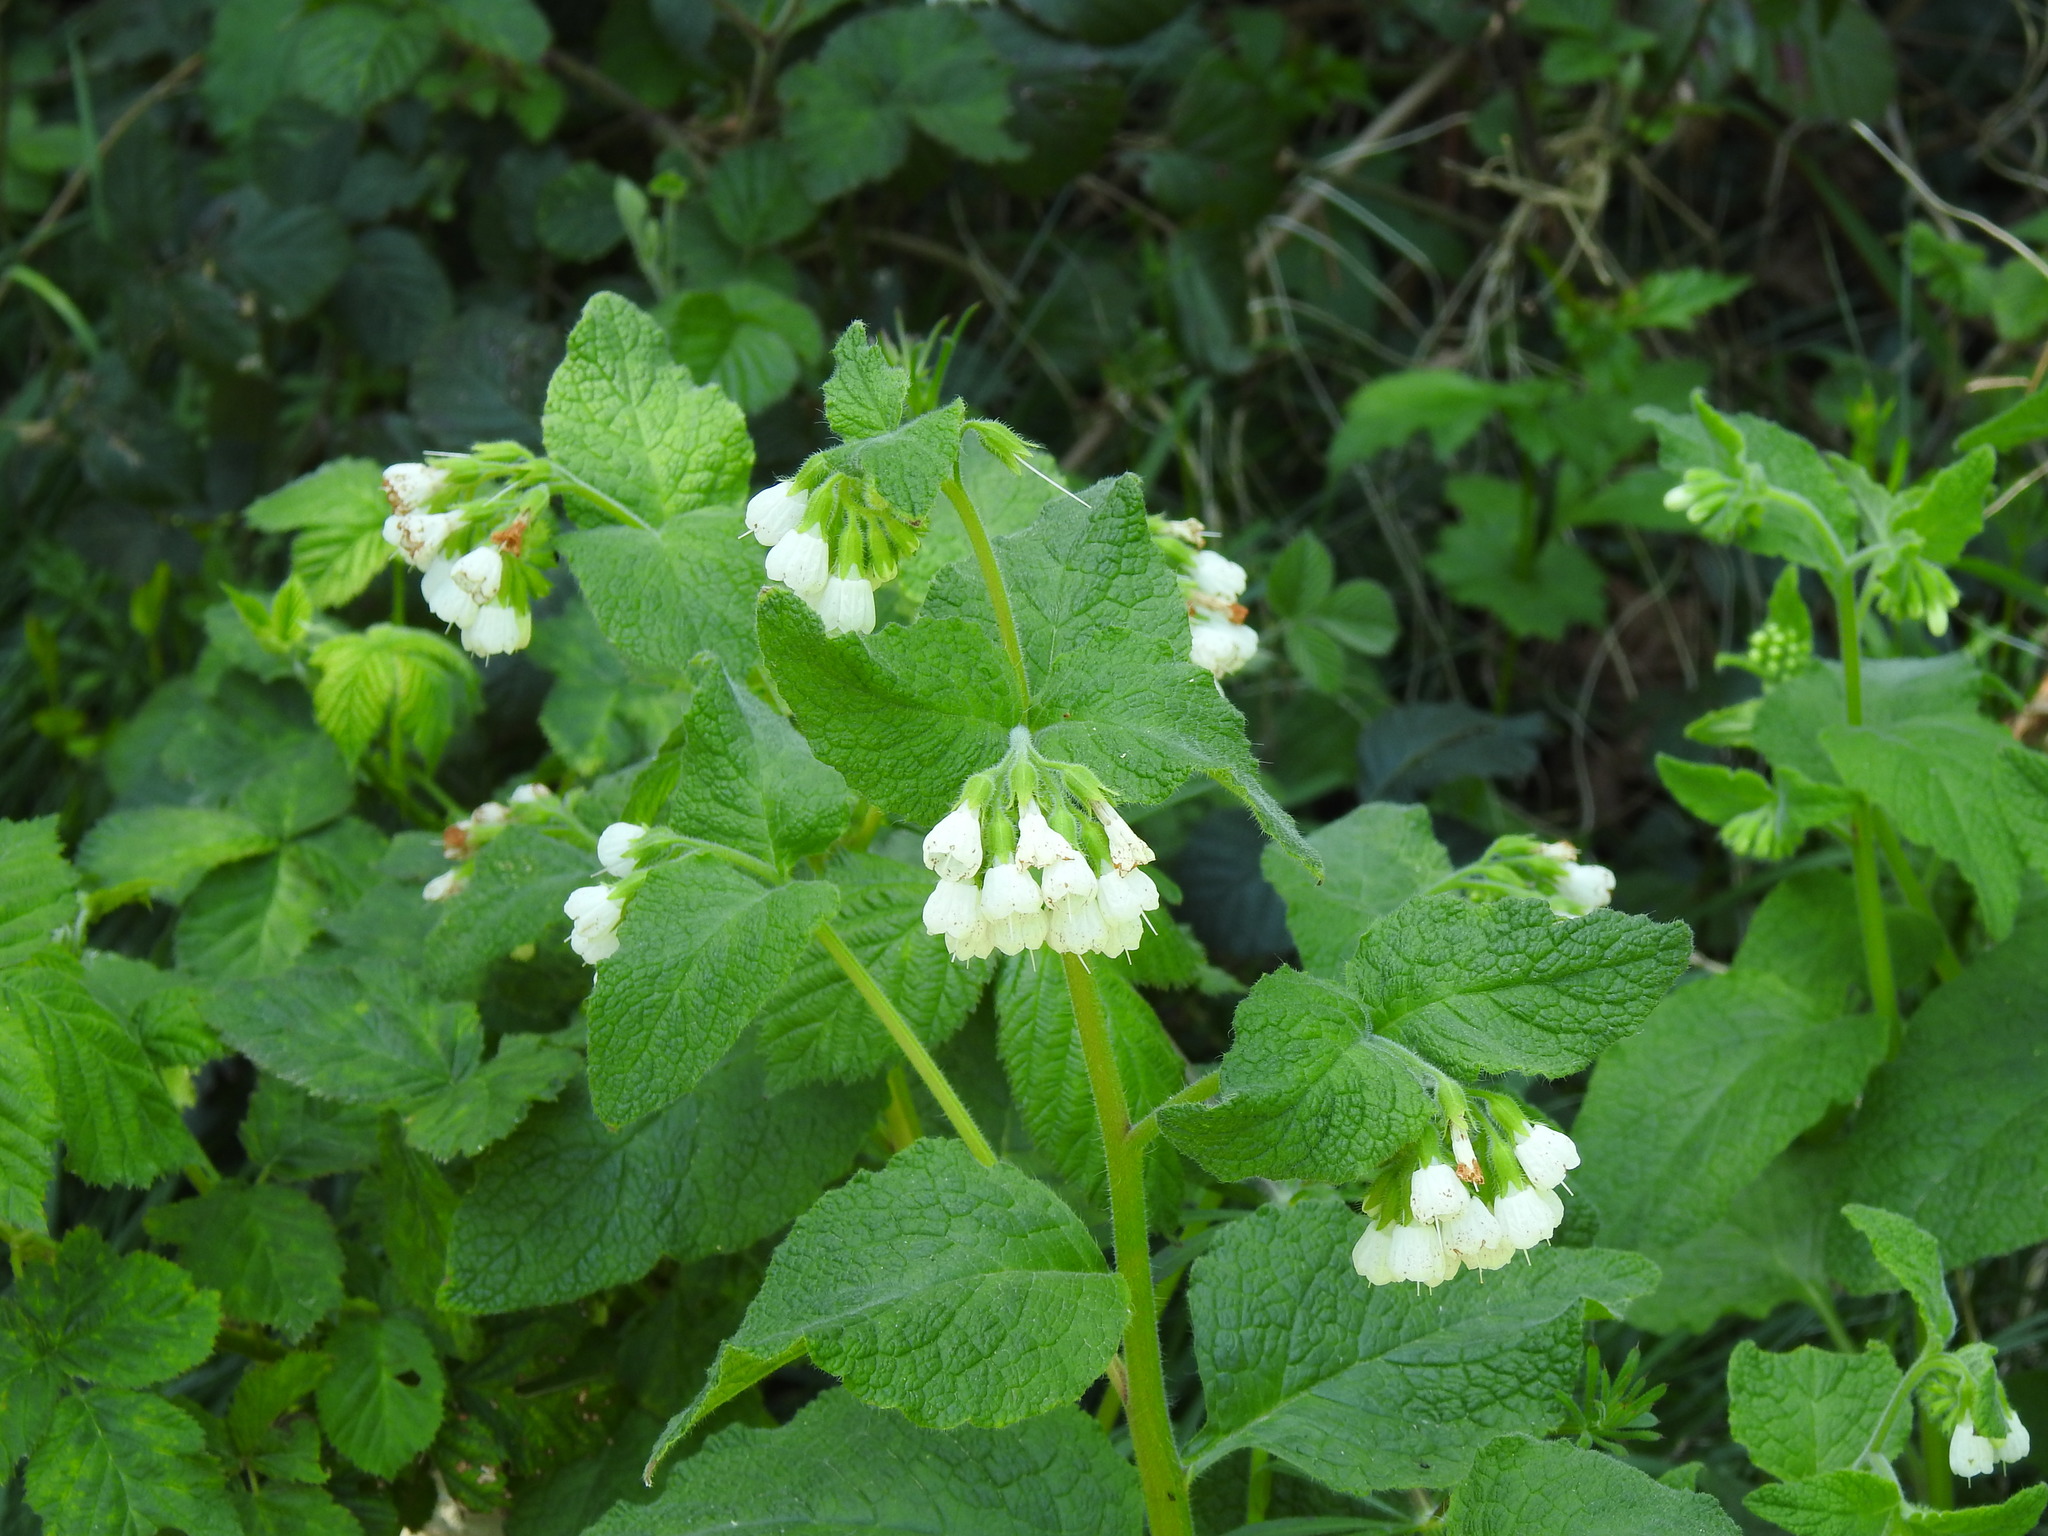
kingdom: Plantae
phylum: Tracheophyta
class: Magnoliopsida
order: Boraginales
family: Boraginaceae
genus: Symphytum
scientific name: Symphytum orientale
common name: White comfrey
